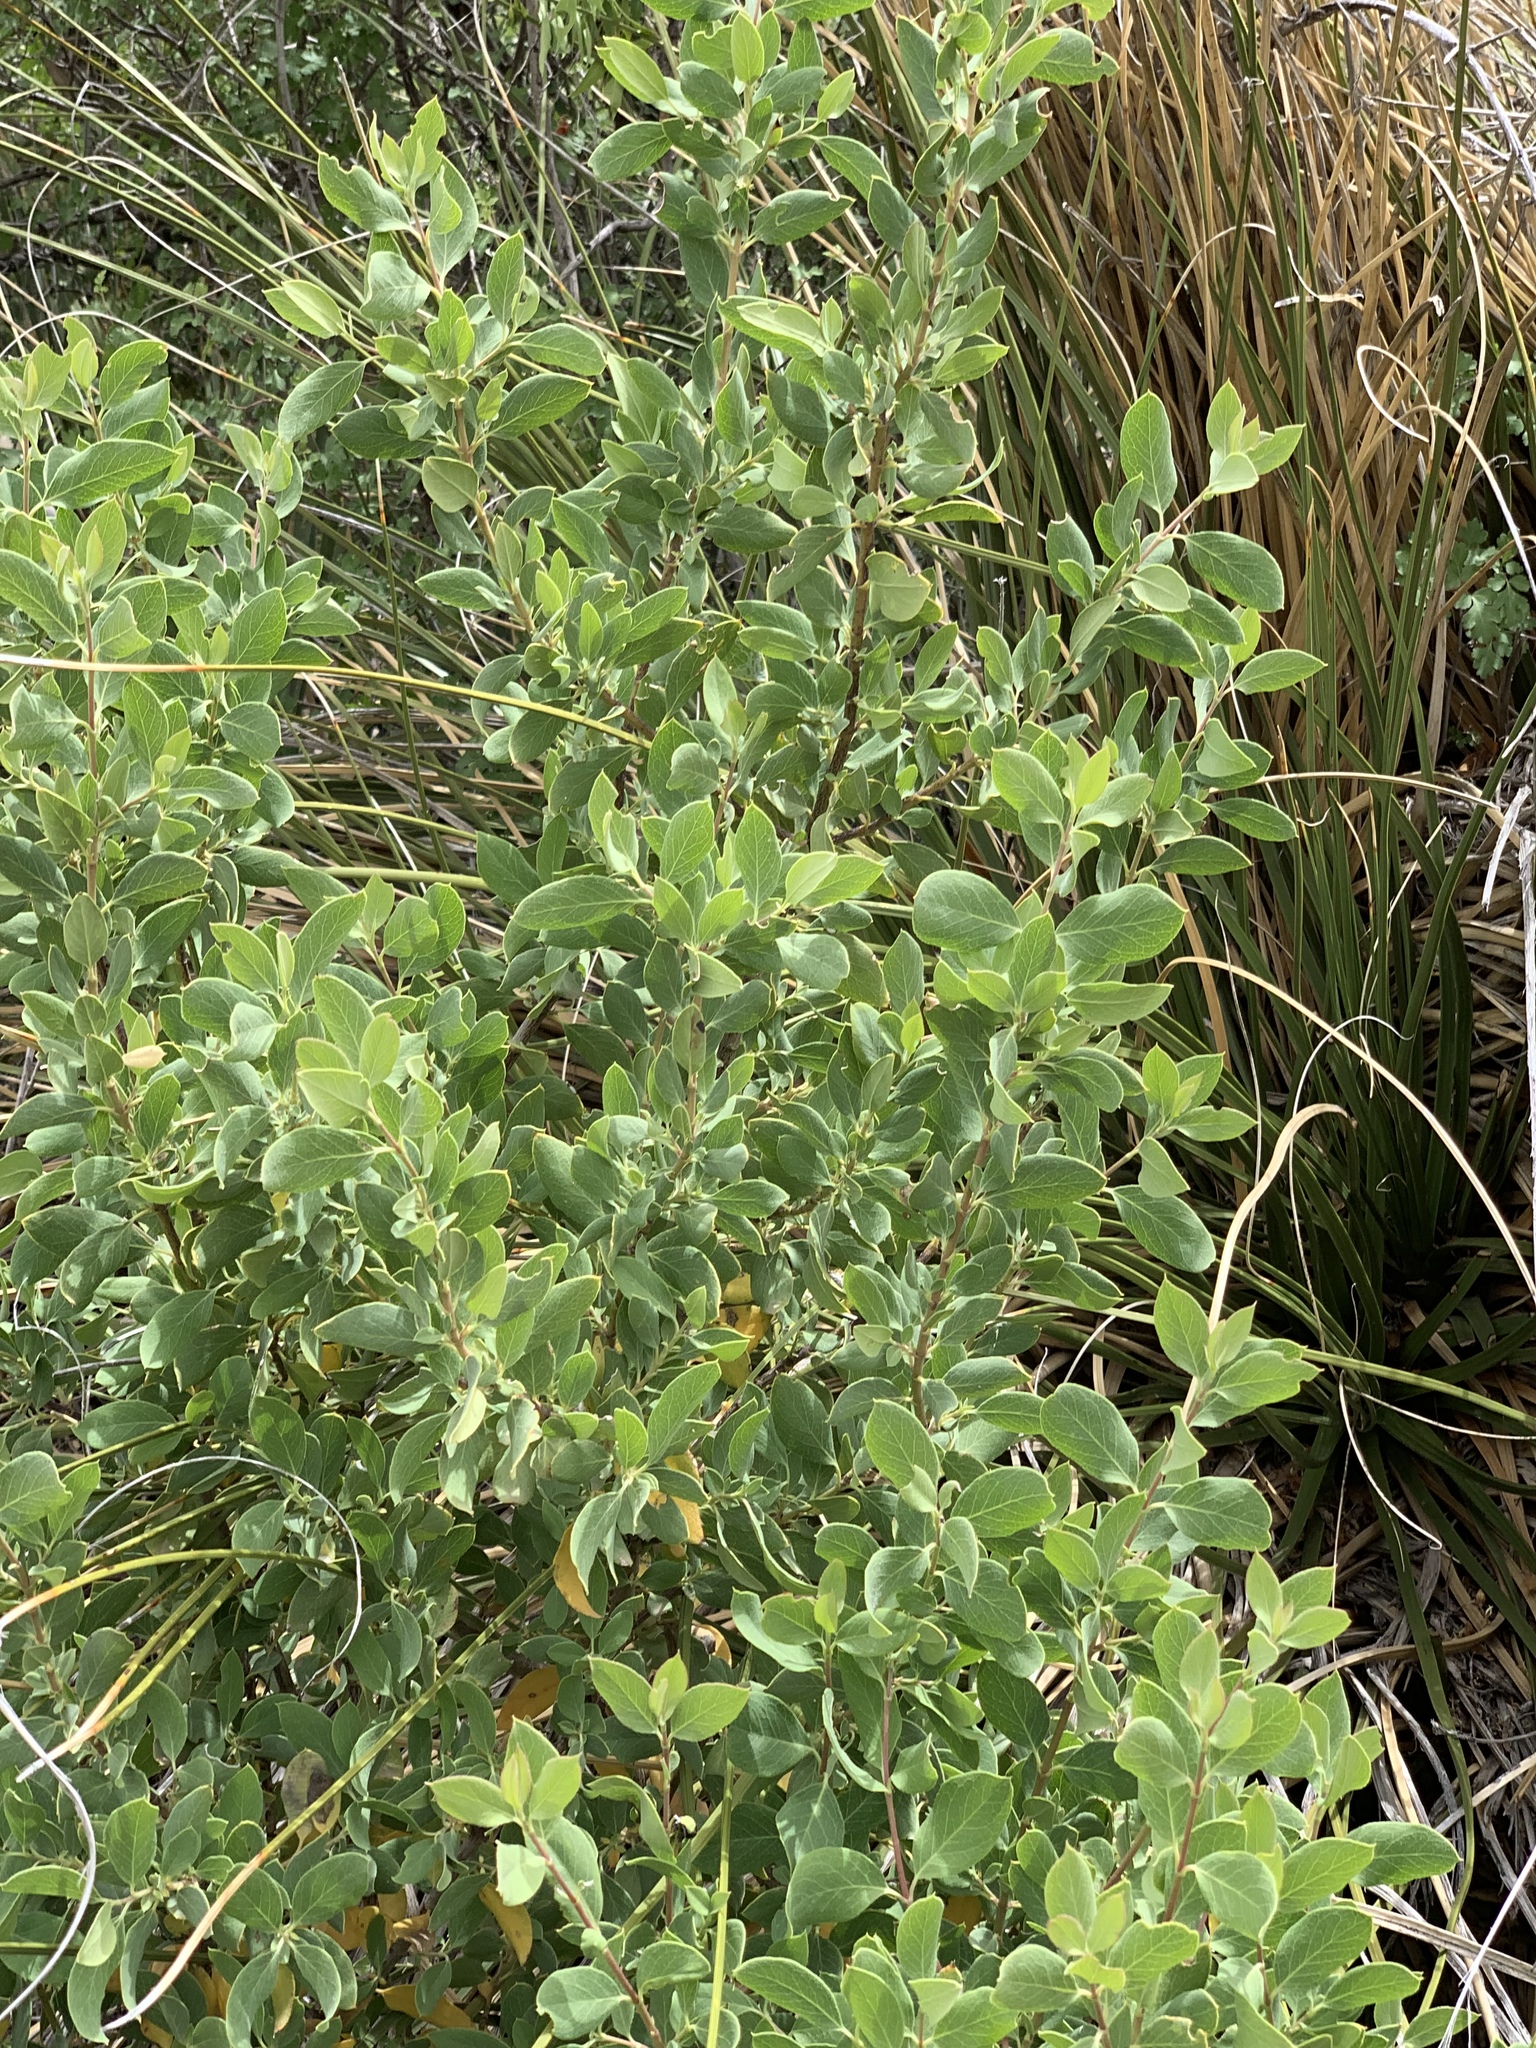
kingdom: Plantae
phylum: Tracheophyta
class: Magnoliopsida
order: Garryales
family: Garryaceae
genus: Garrya
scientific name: Garrya wrightii
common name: Wright's silktassel
